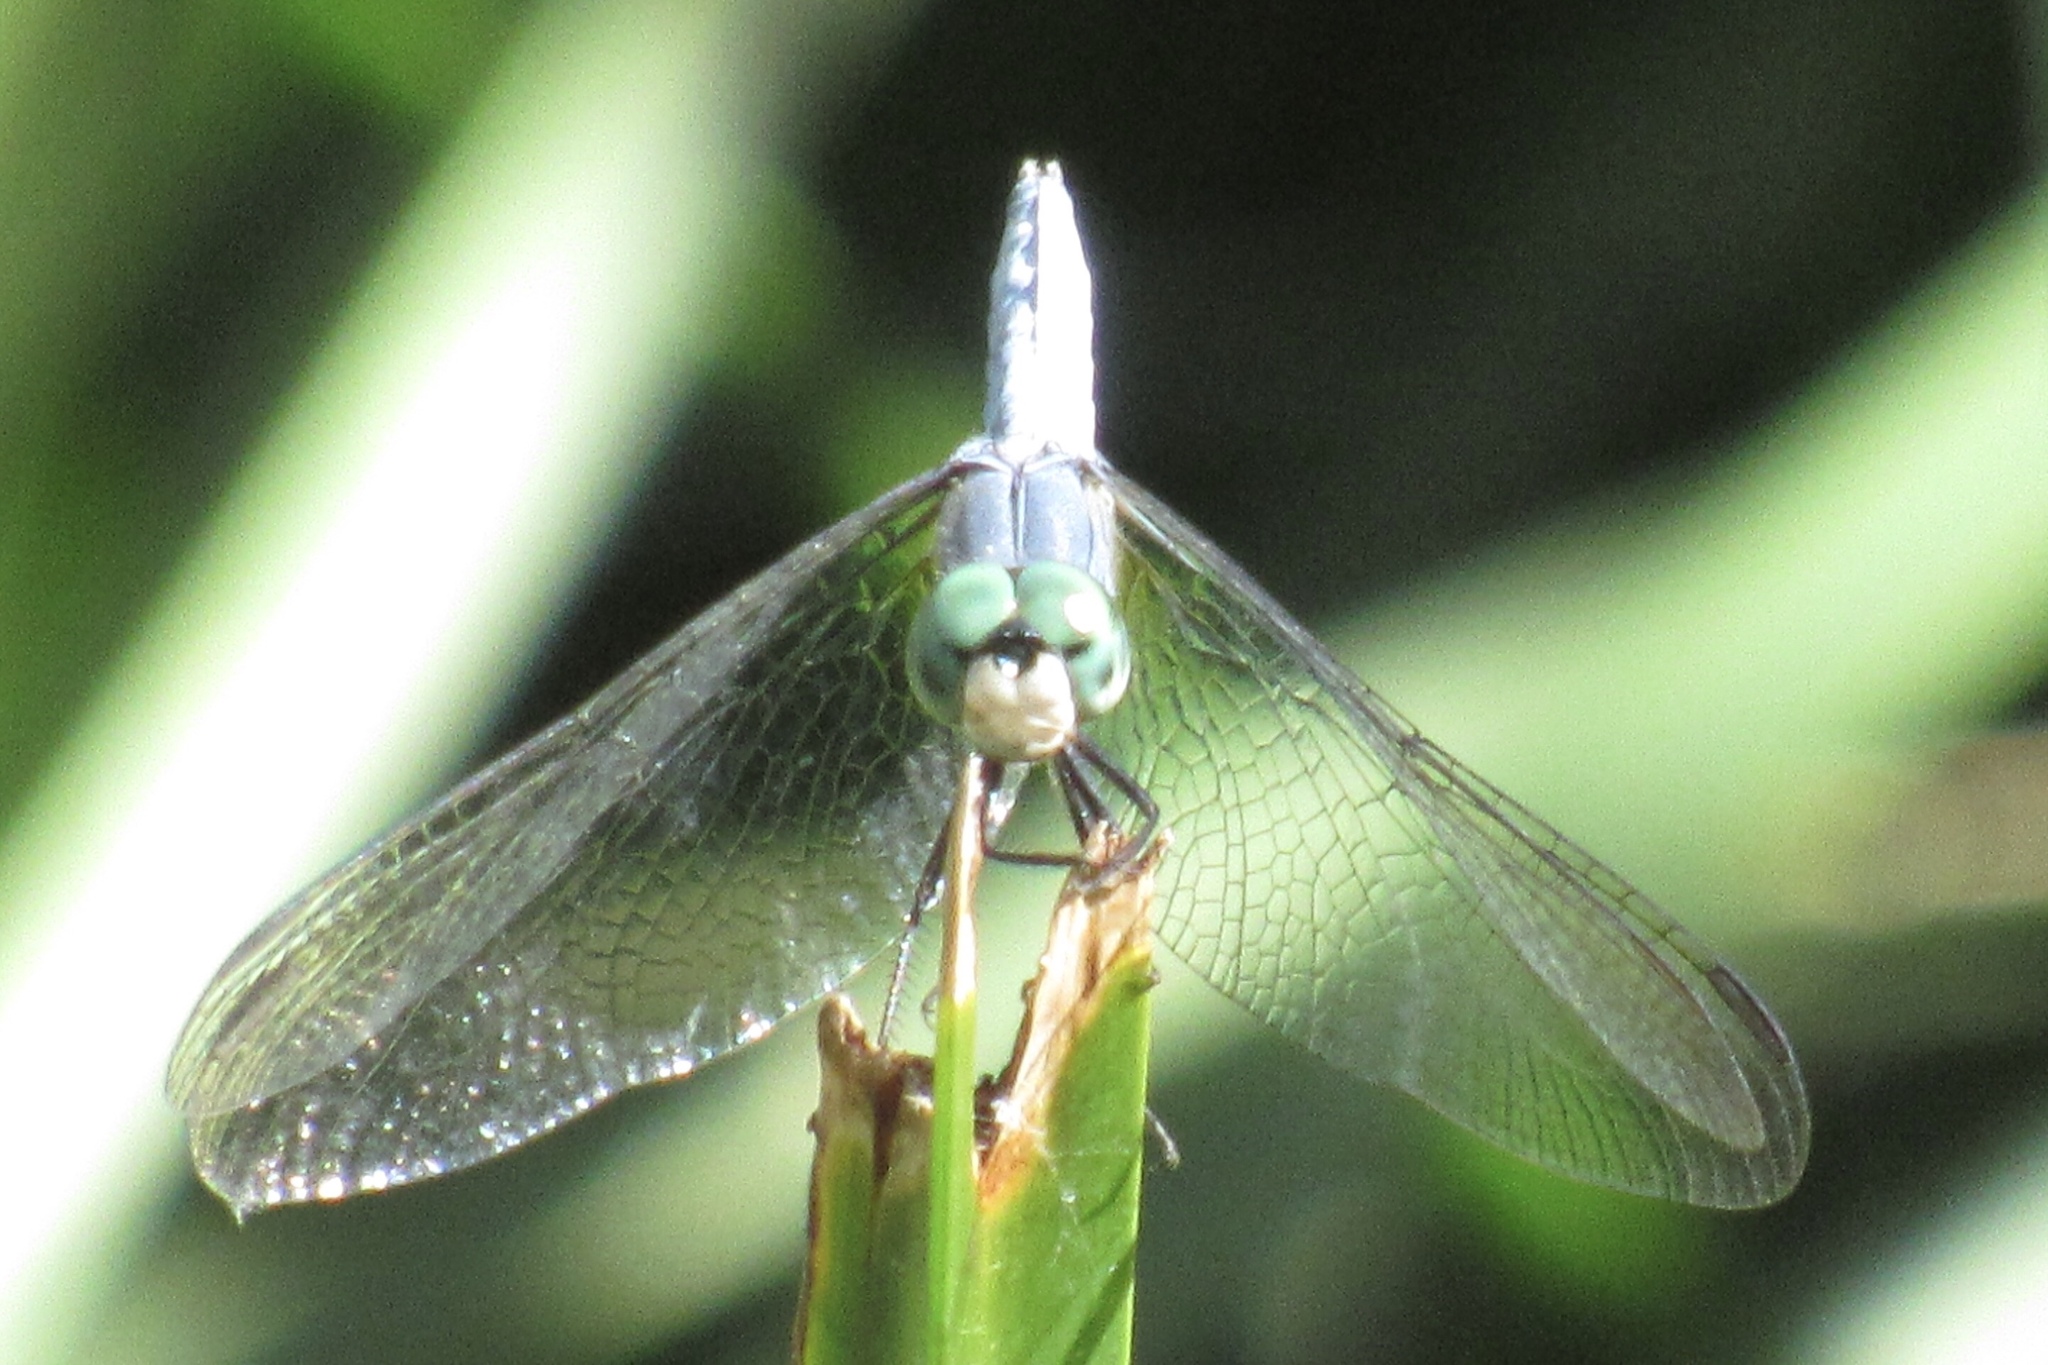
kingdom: Animalia
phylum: Arthropoda
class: Insecta
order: Odonata
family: Libellulidae
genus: Pachydiplax
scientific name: Pachydiplax longipennis
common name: Blue dasher
